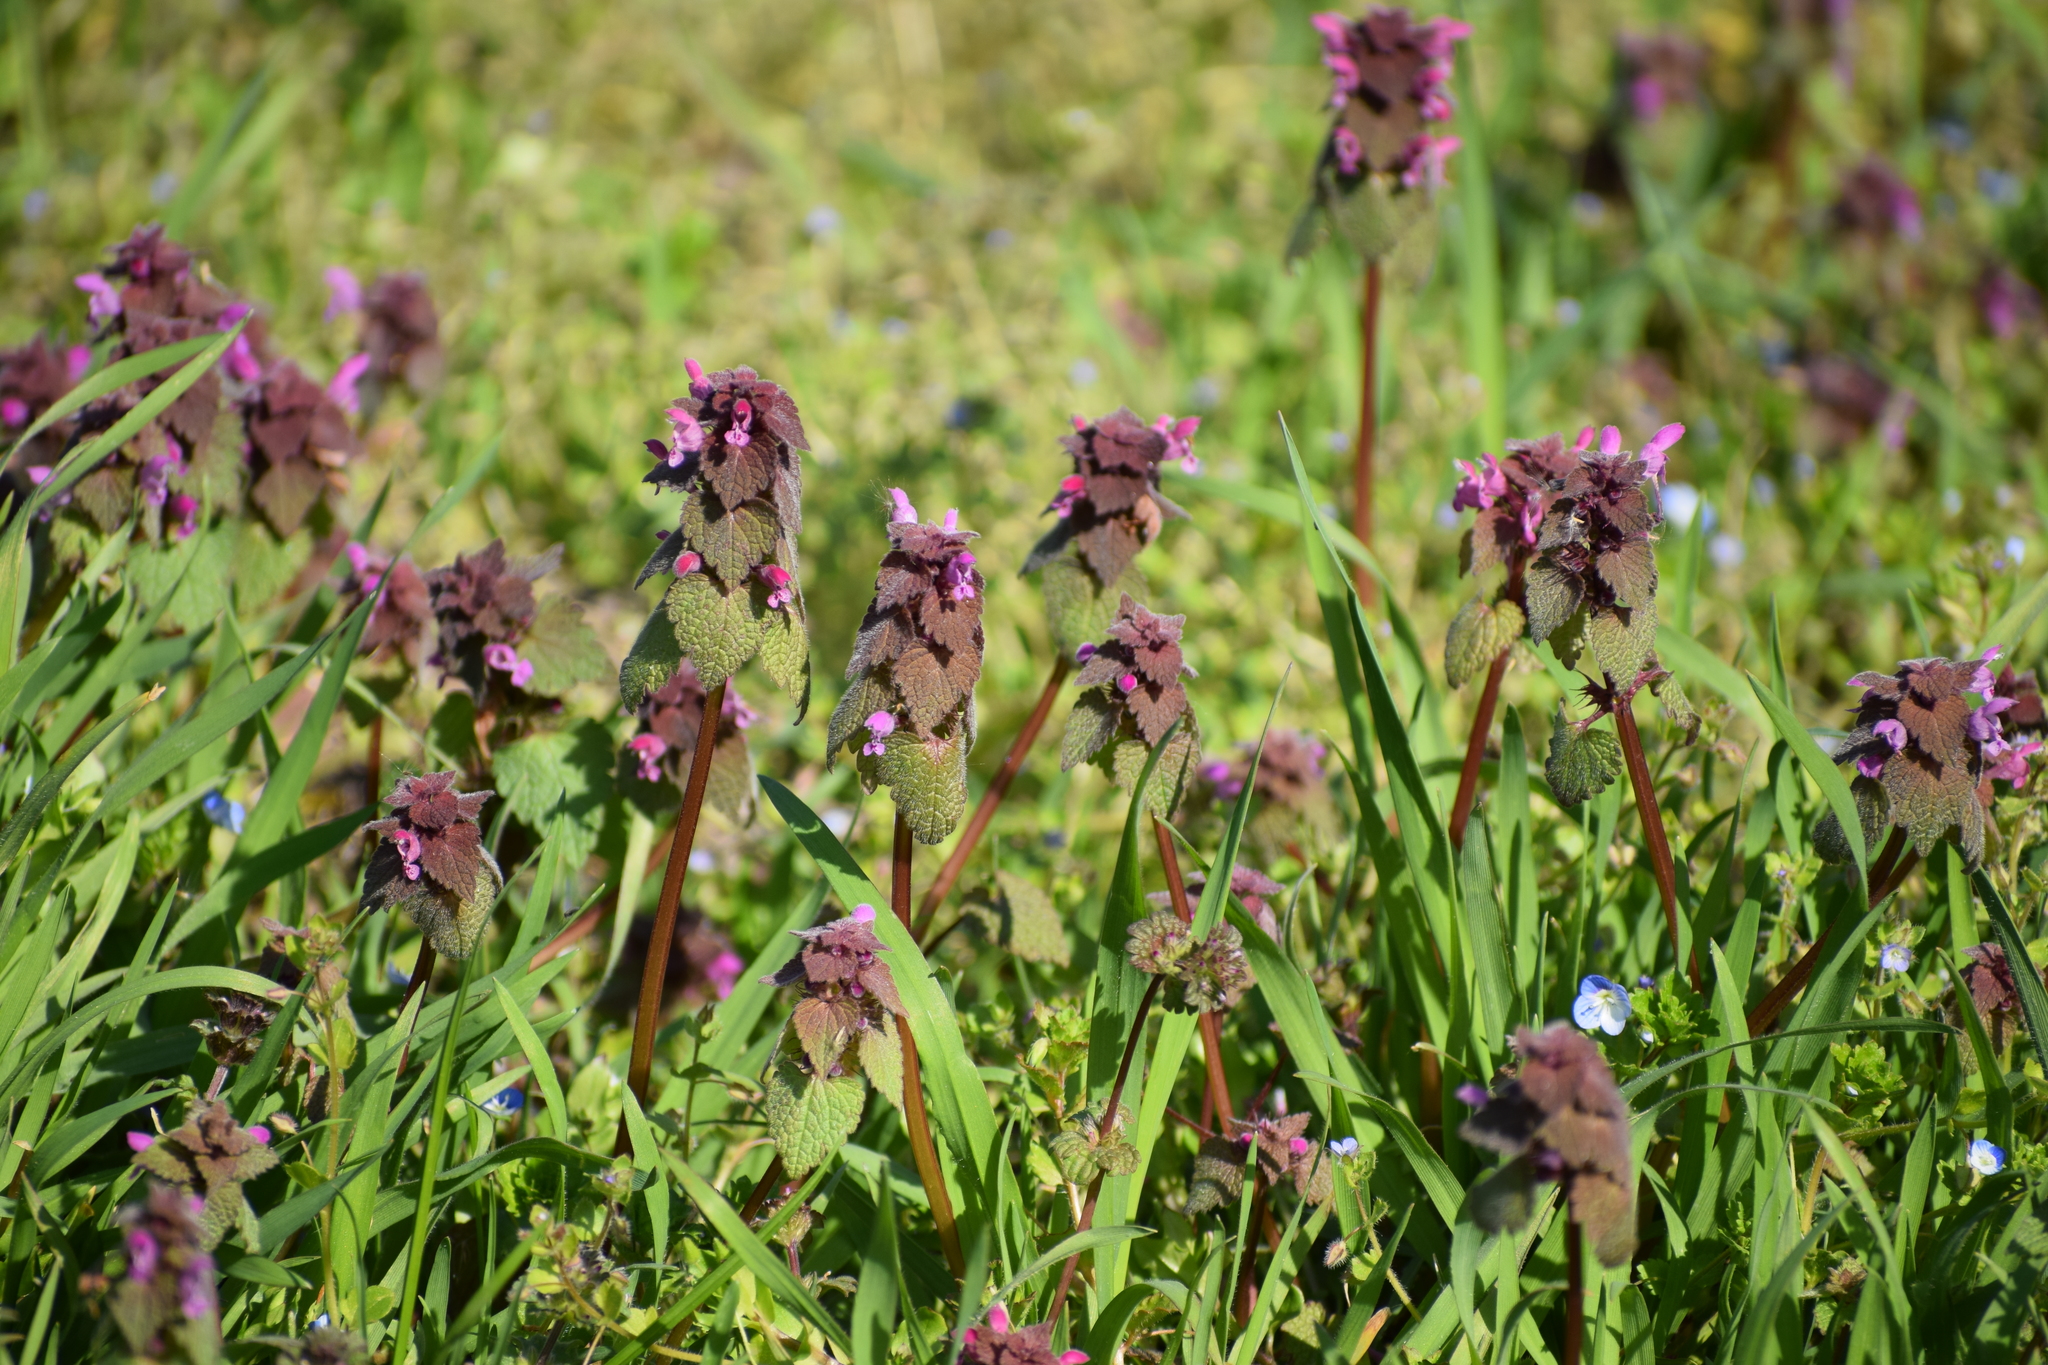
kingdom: Plantae
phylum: Tracheophyta
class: Magnoliopsida
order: Lamiales
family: Lamiaceae
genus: Lamium
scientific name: Lamium purpureum
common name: Red dead-nettle
